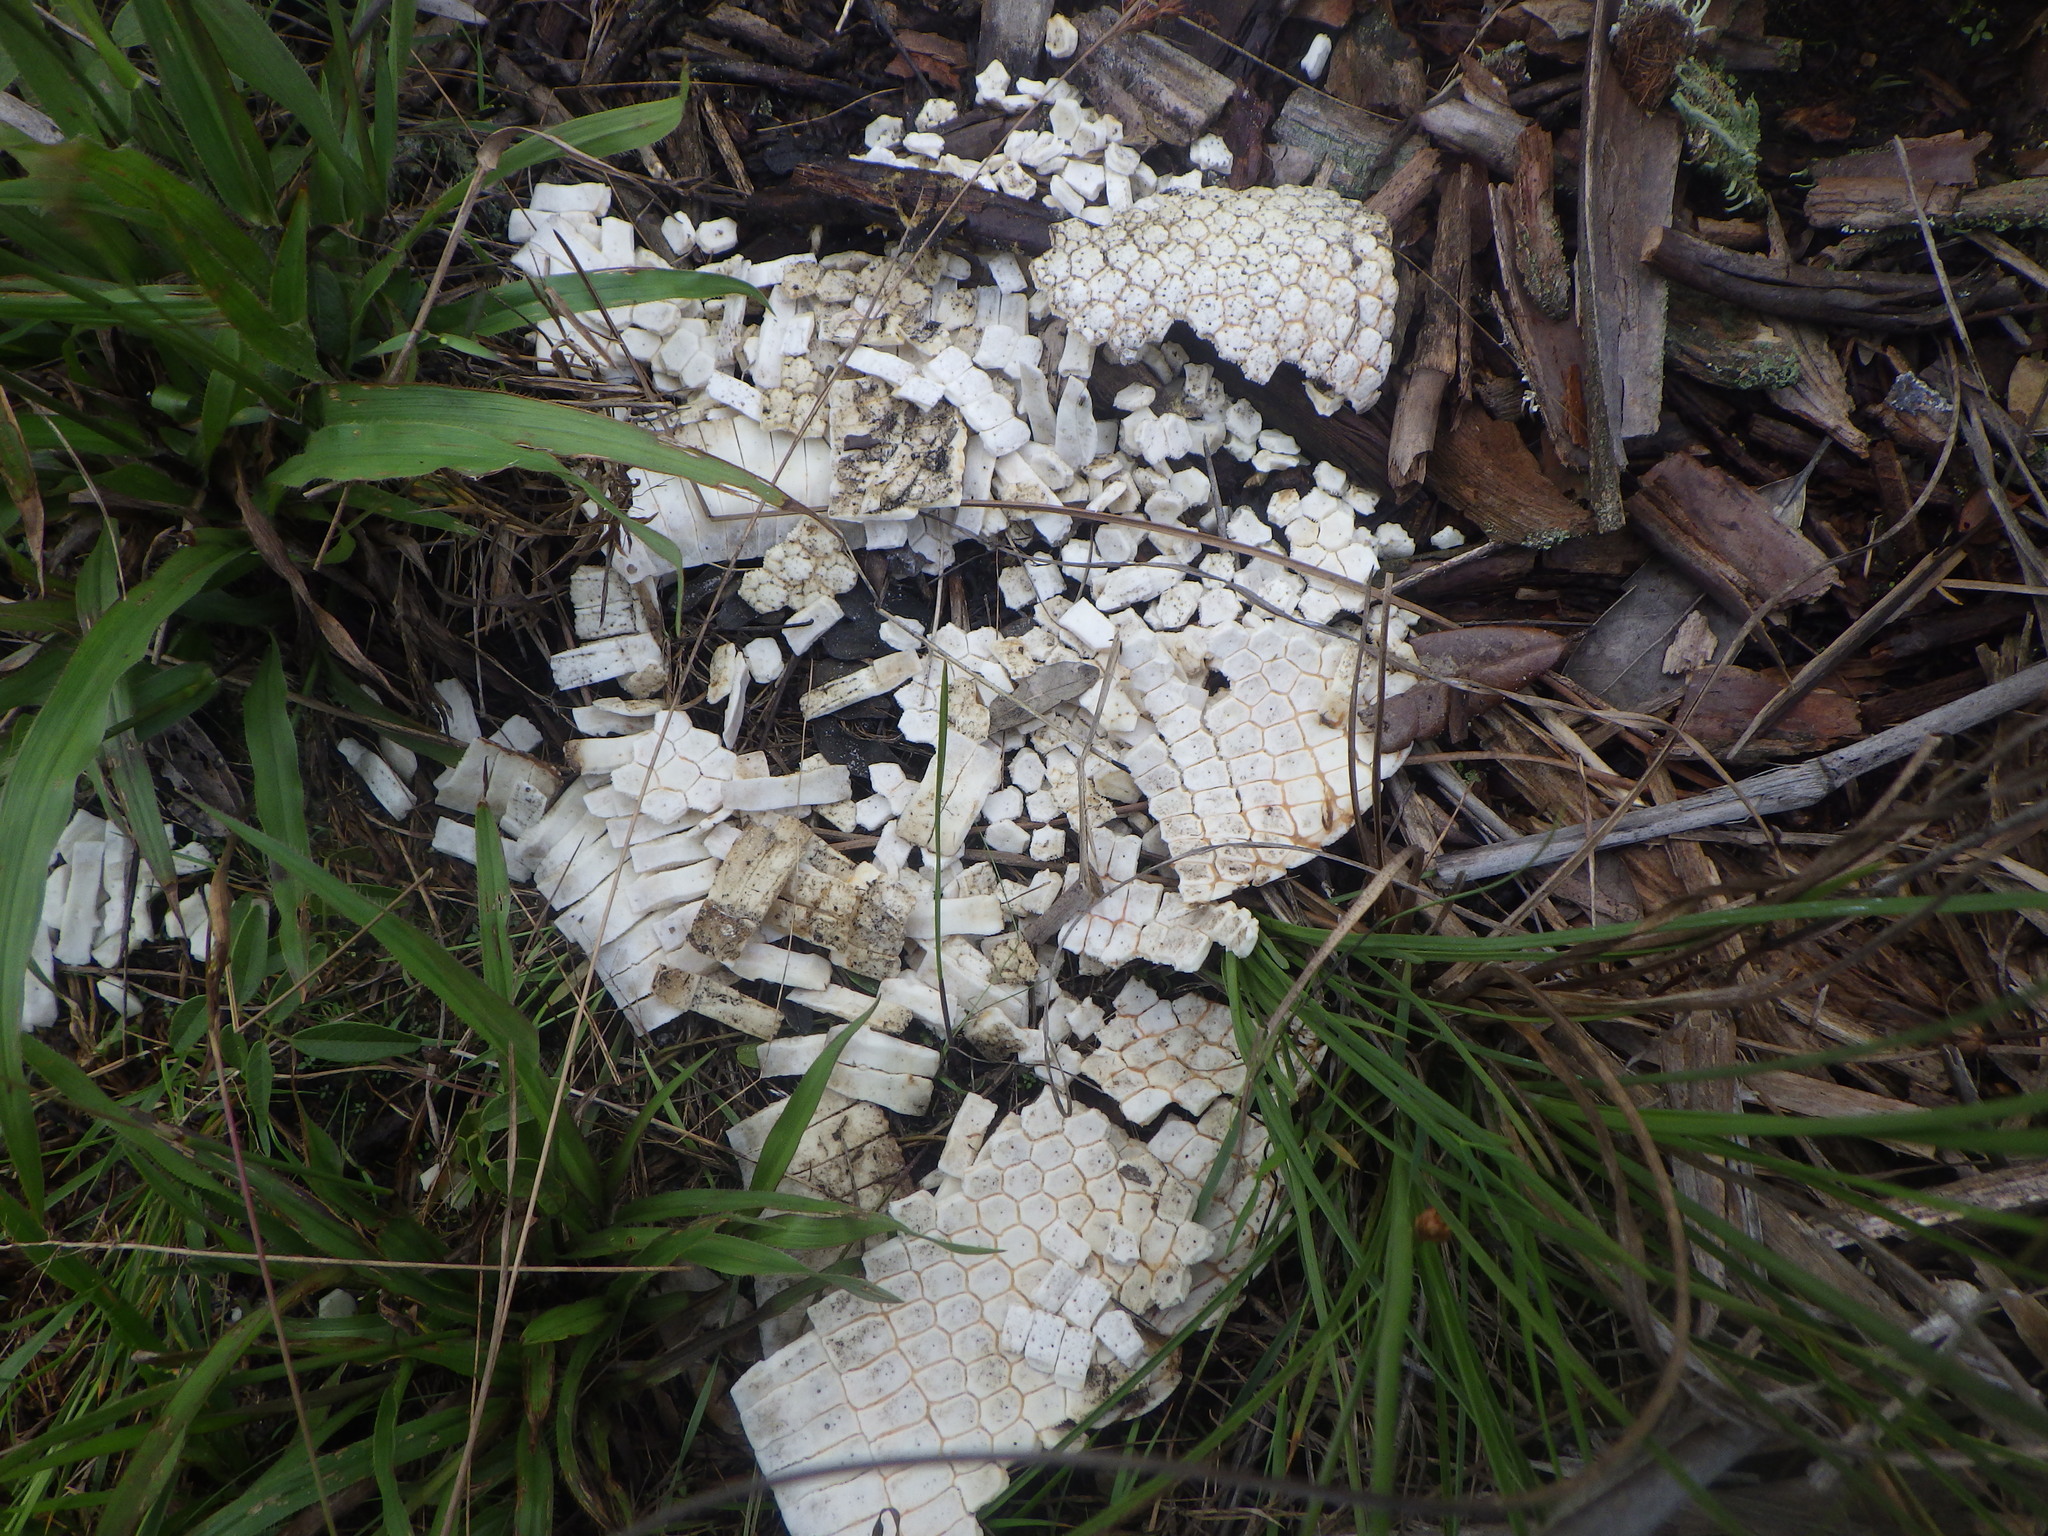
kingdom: Animalia
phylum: Chordata
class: Mammalia
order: Cingulata
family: Dasypodidae
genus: Dasypus
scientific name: Dasypus novemcinctus
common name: Nine-banded armadillo
